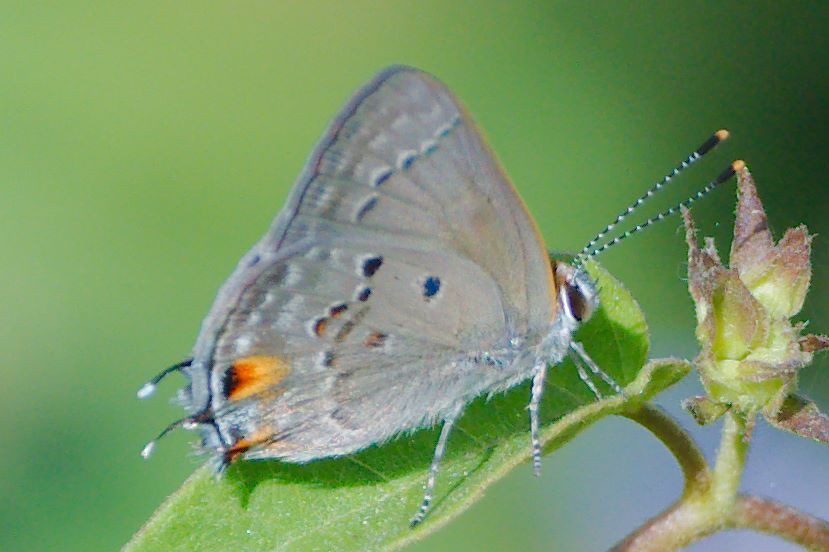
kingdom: Animalia
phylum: Arthropoda
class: Insecta
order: Lepidoptera
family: Lycaenidae
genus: Callicista
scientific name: Callicista columella
